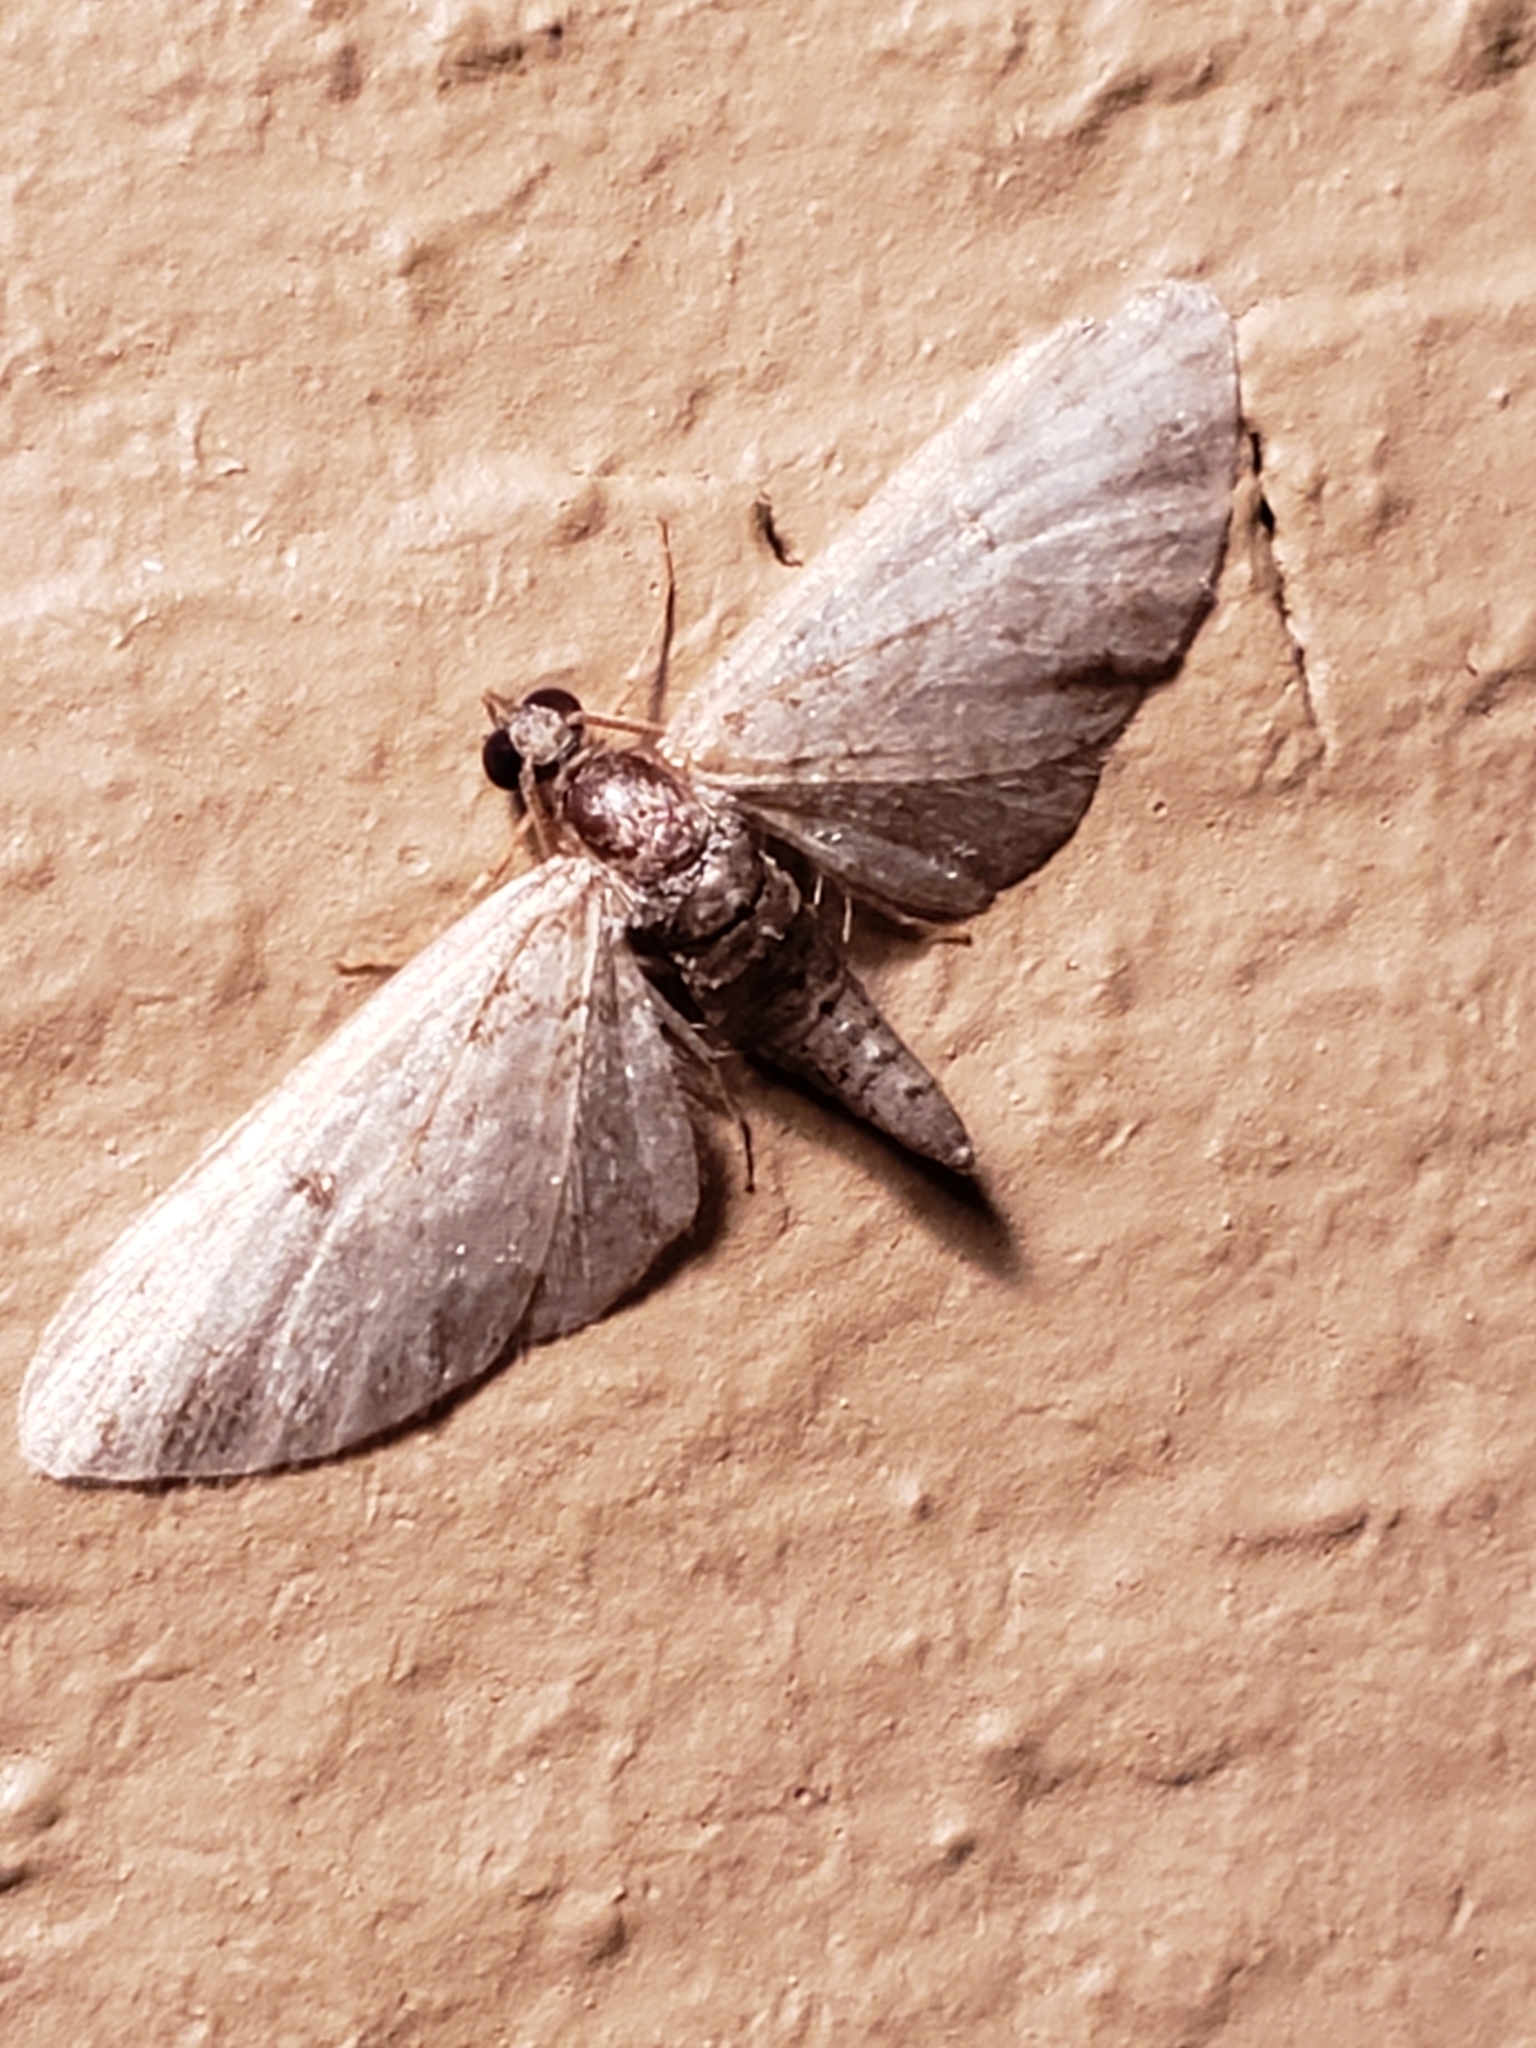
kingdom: Animalia
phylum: Arthropoda
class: Insecta
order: Lepidoptera
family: Geometridae
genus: Eupithecia
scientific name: Eupithecia
